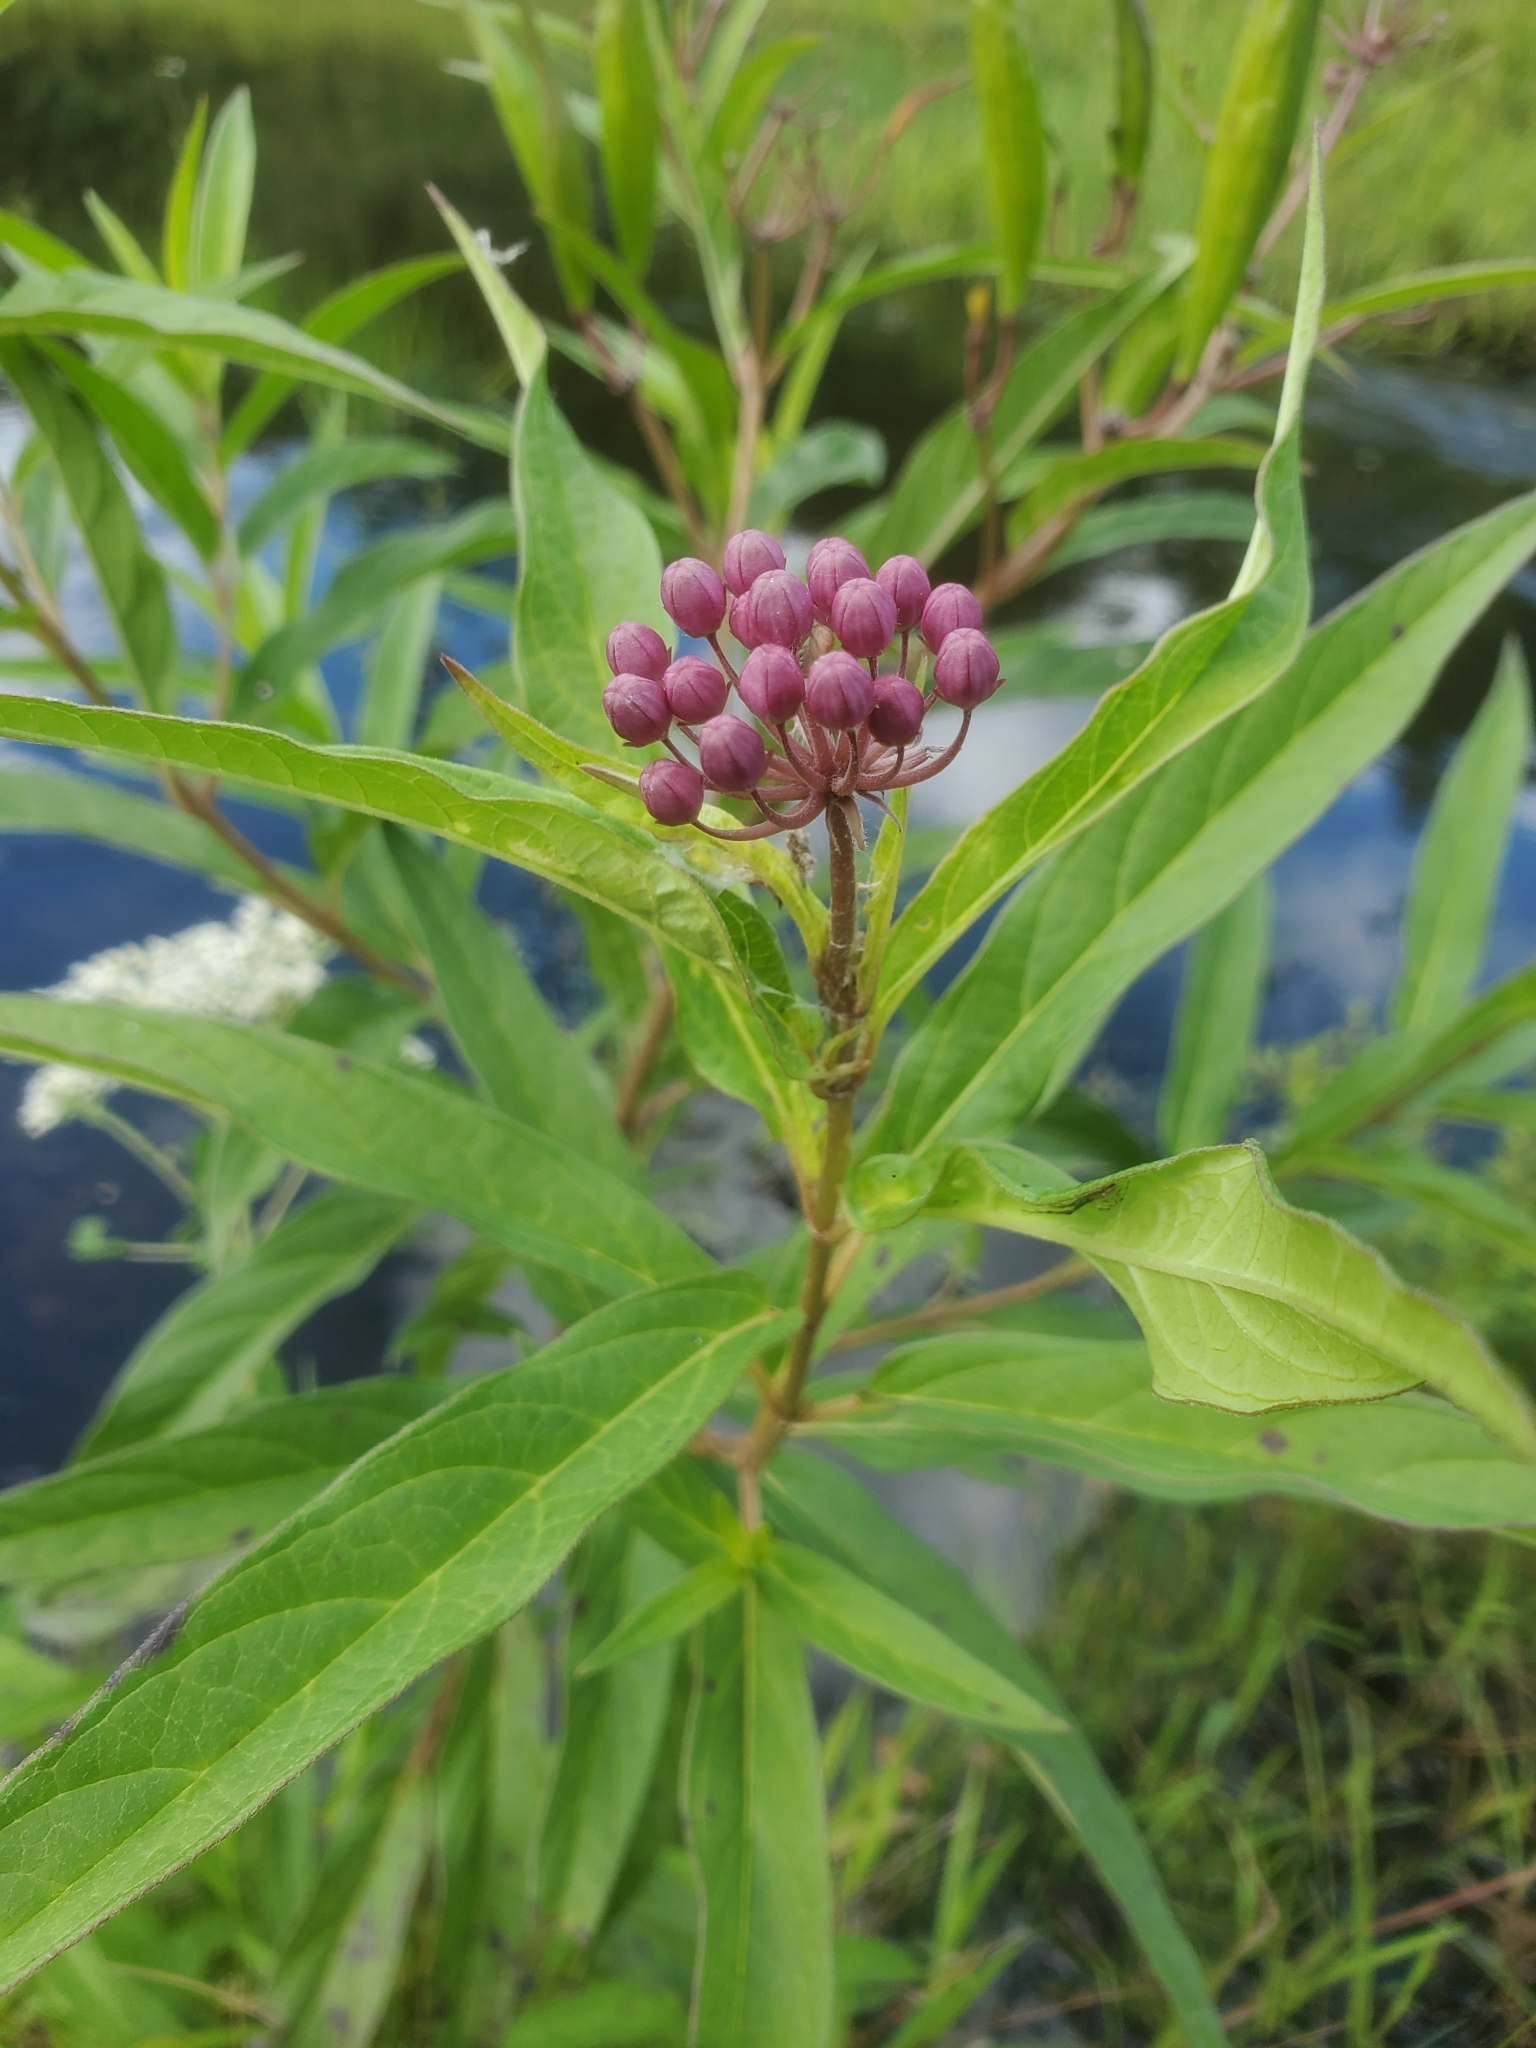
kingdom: Plantae
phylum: Tracheophyta
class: Magnoliopsida
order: Gentianales
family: Apocynaceae
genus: Asclepias
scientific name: Asclepias incarnata
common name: Swamp milkweed
